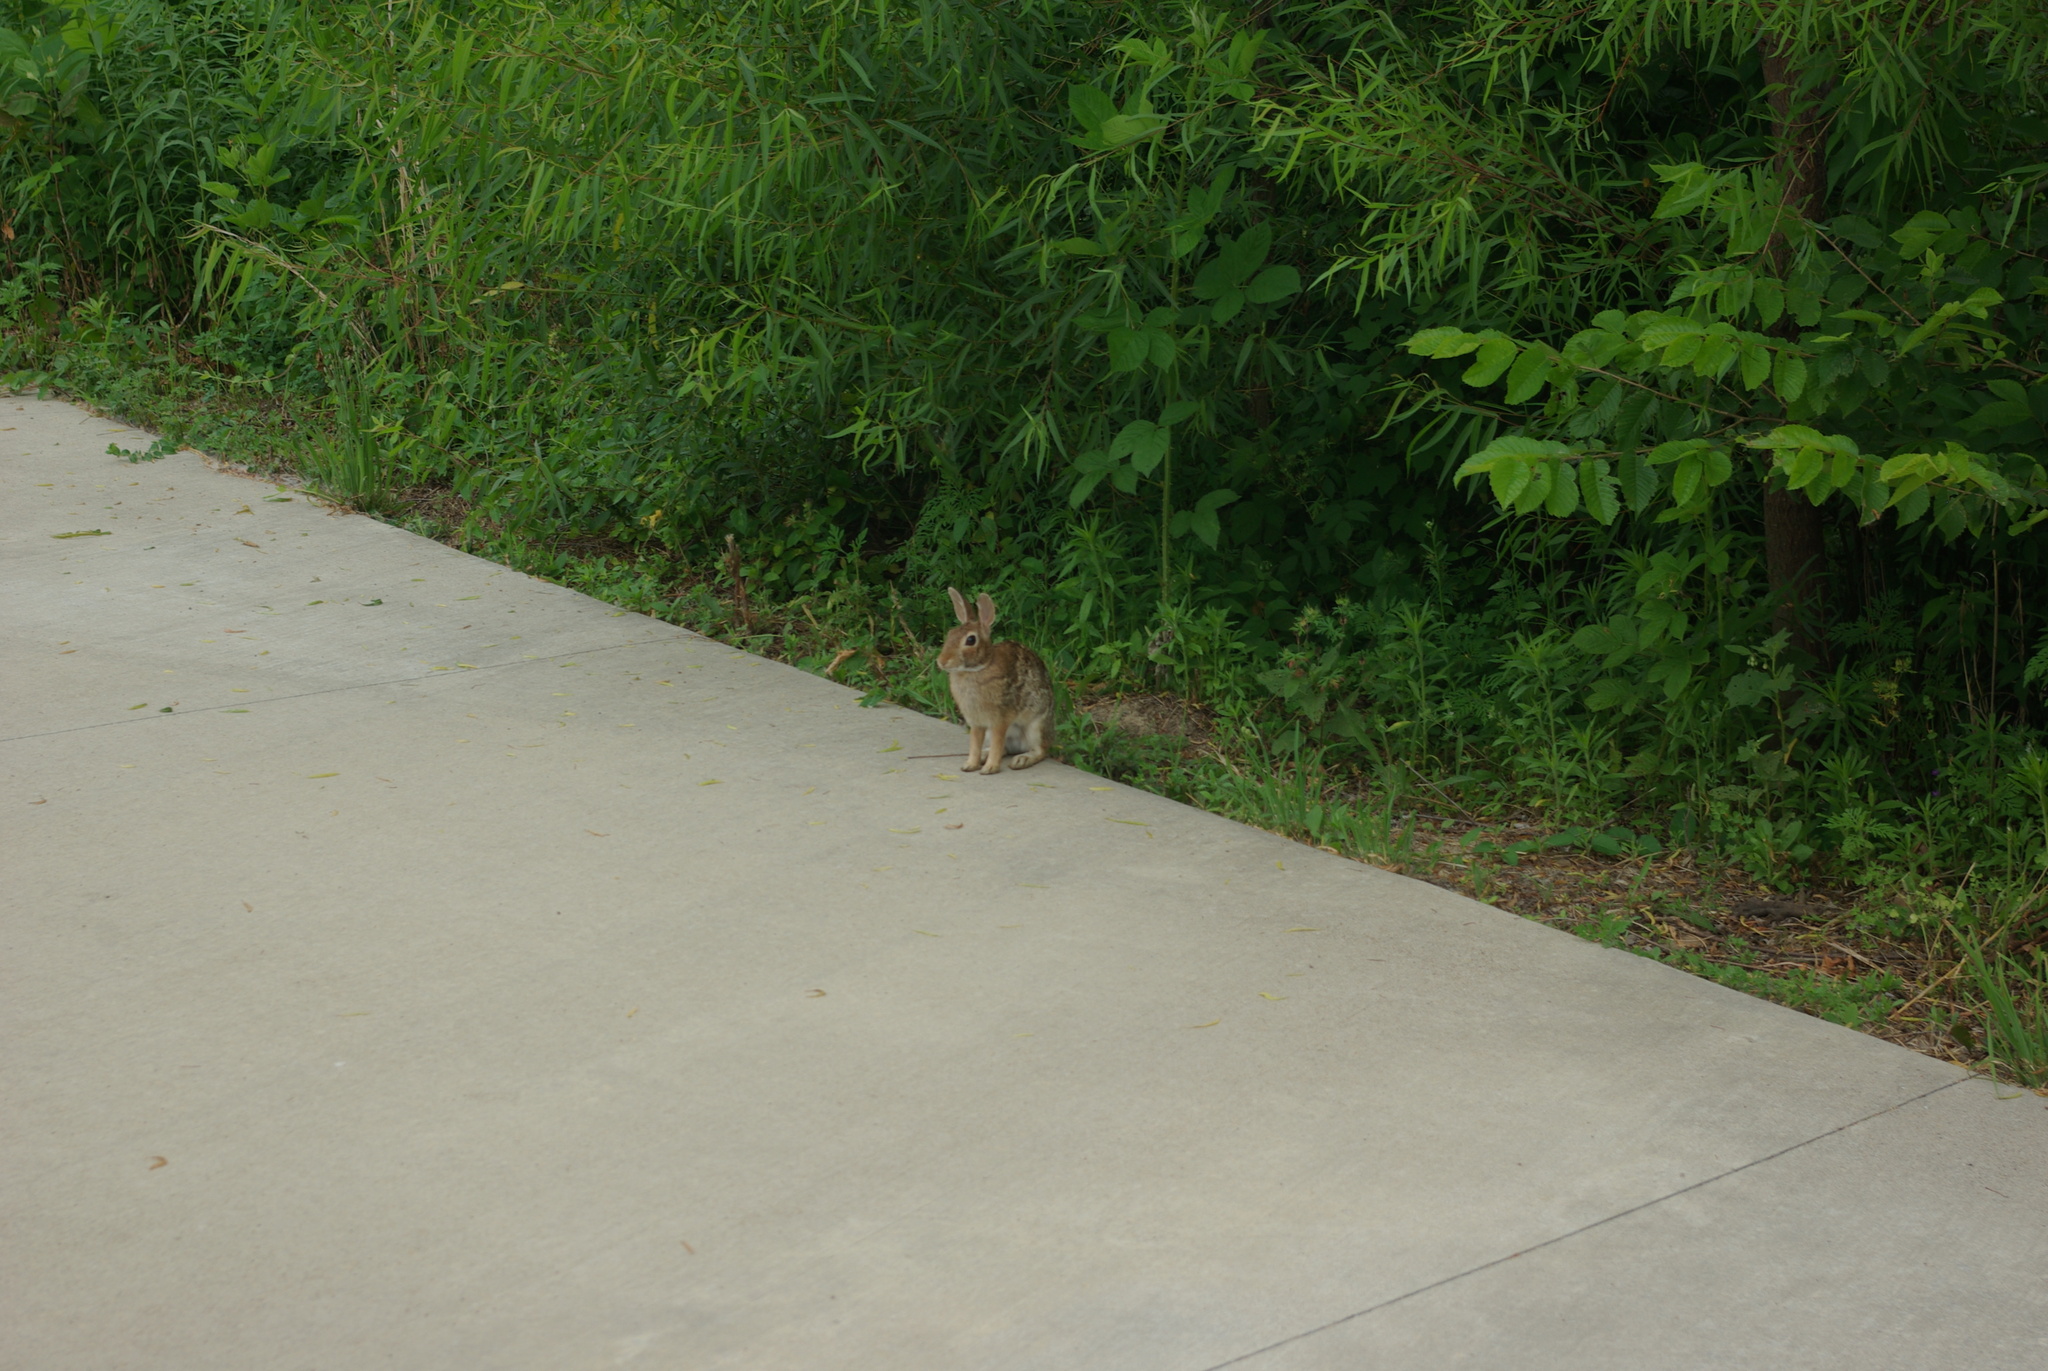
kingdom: Animalia
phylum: Chordata
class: Mammalia
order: Lagomorpha
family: Leporidae
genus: Sylvilagus
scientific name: Sylvilagus floridanus
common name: Eastern cottontail
